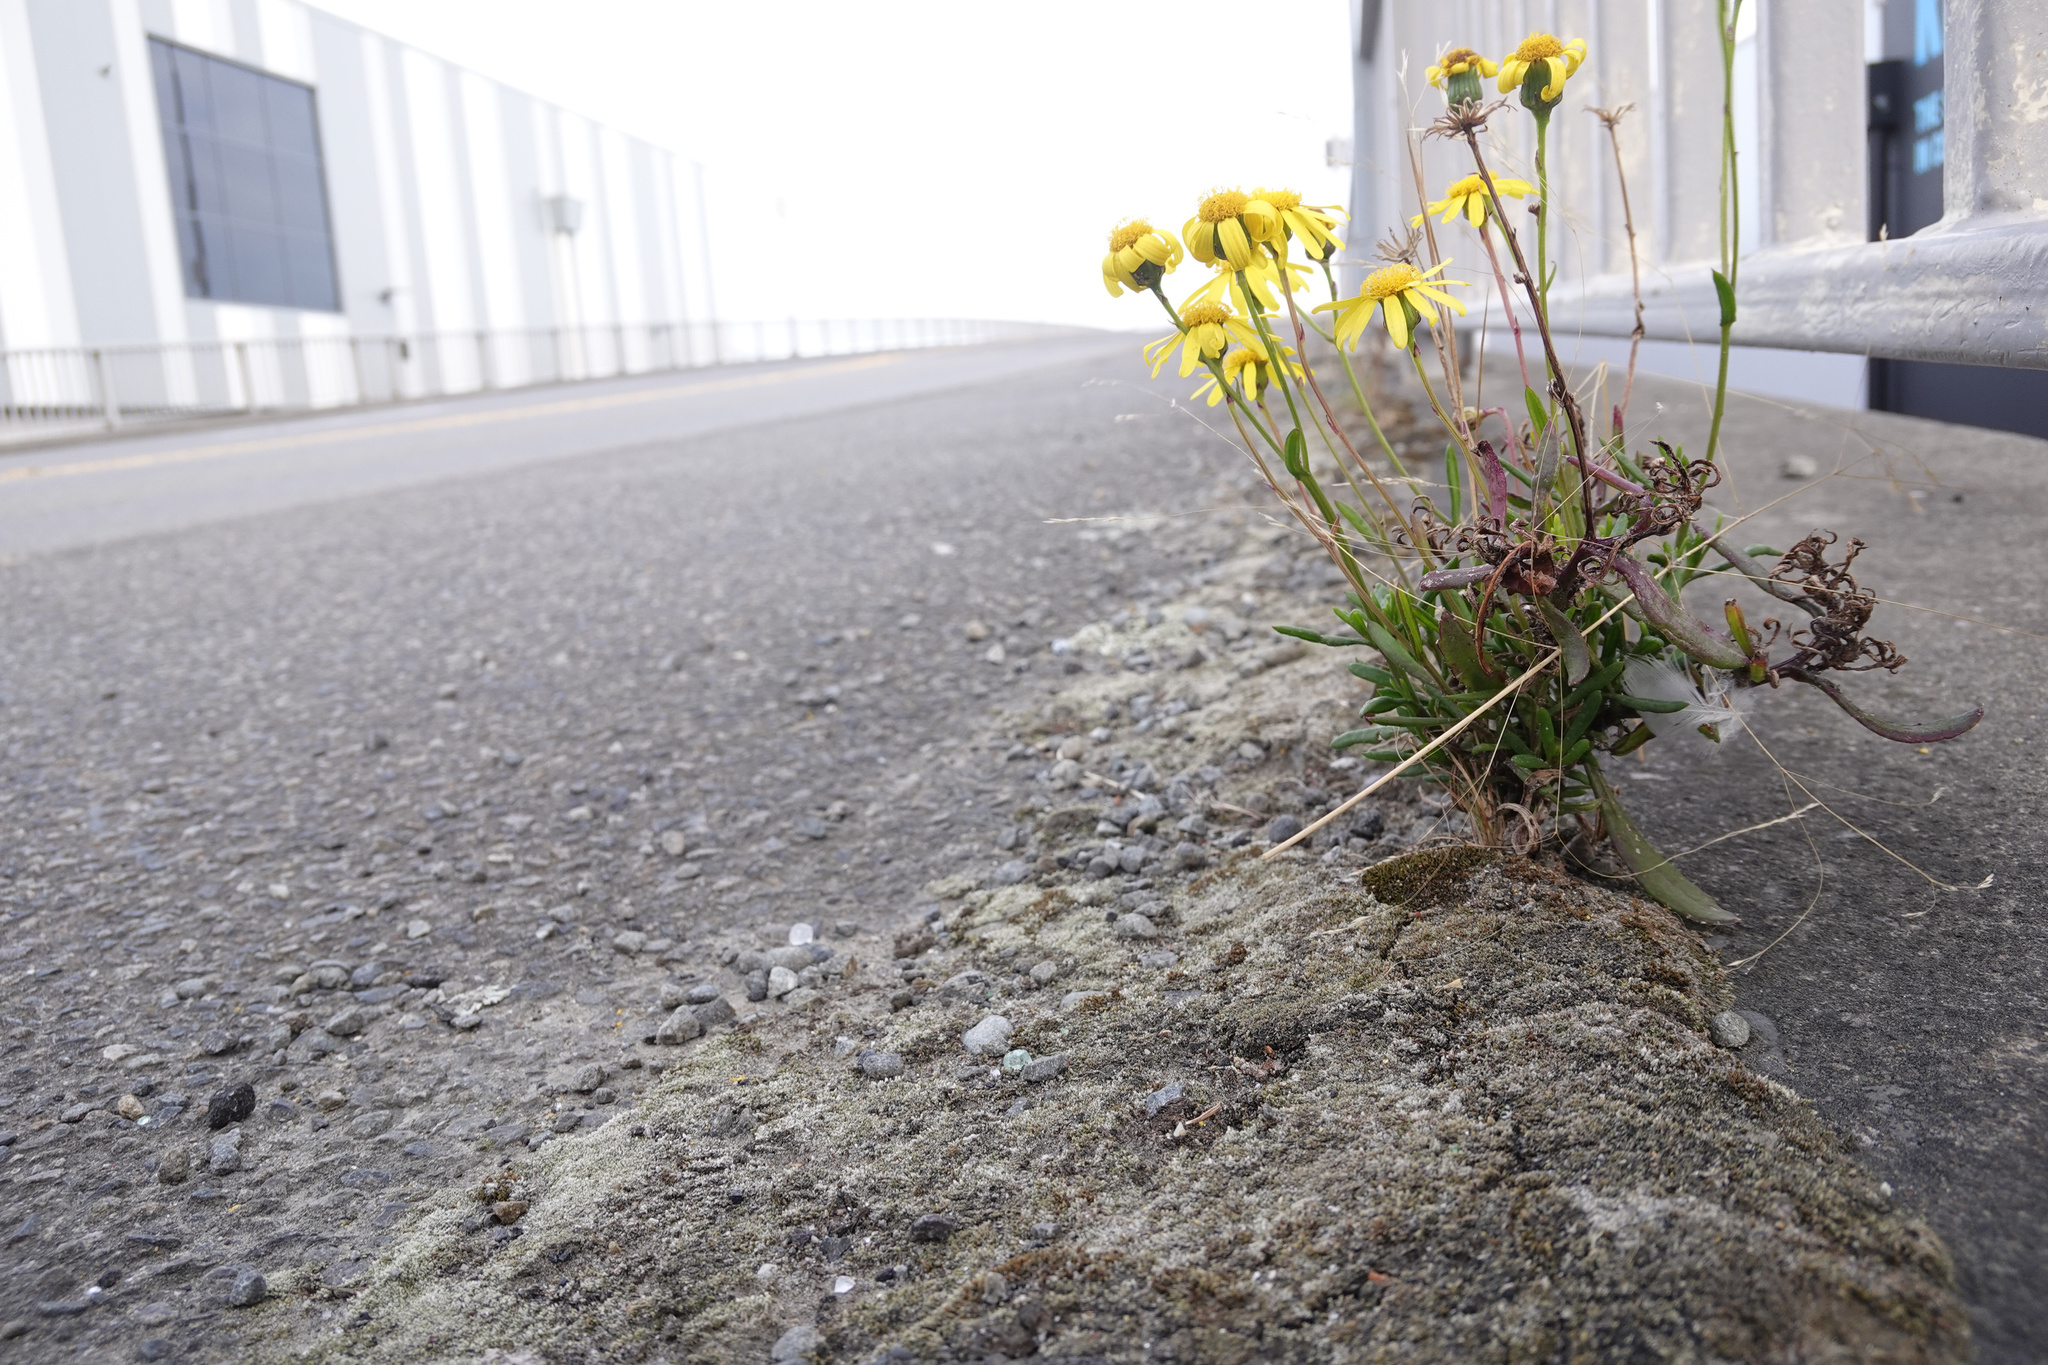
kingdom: Plantae
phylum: Tracheophyta
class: Magnoliopsida
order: Asterales
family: Asteraceae
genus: Senecio
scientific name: Senecio skirrhodon
